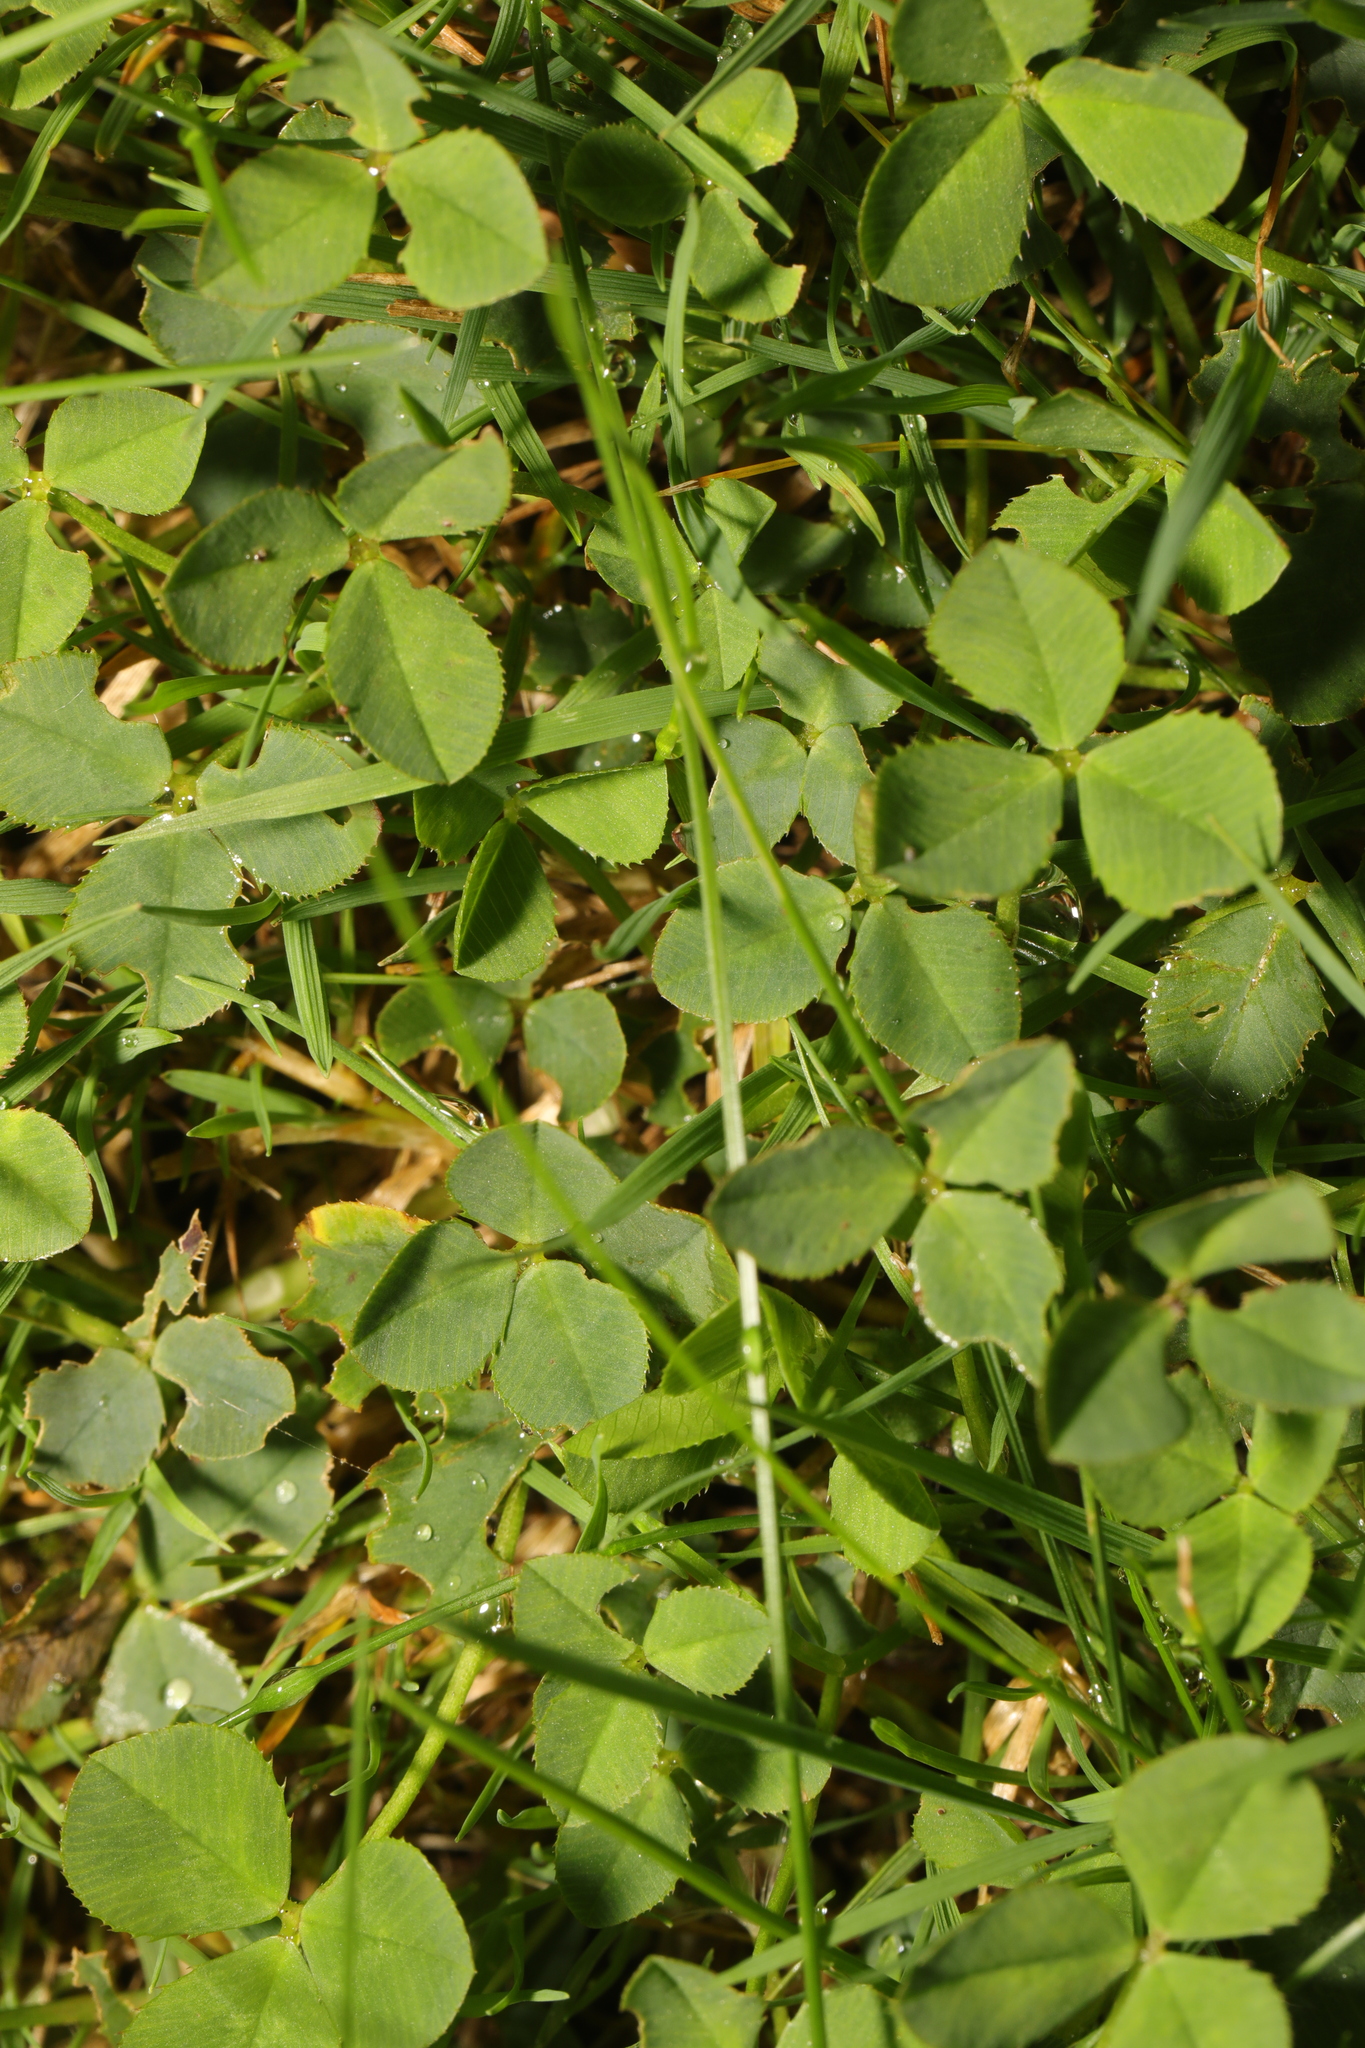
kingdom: Plantae
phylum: Tracheophyta
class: Magnoliopsida
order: Fabales
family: Fabaceae
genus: Trifolium
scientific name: Trifolium repens
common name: White clover
